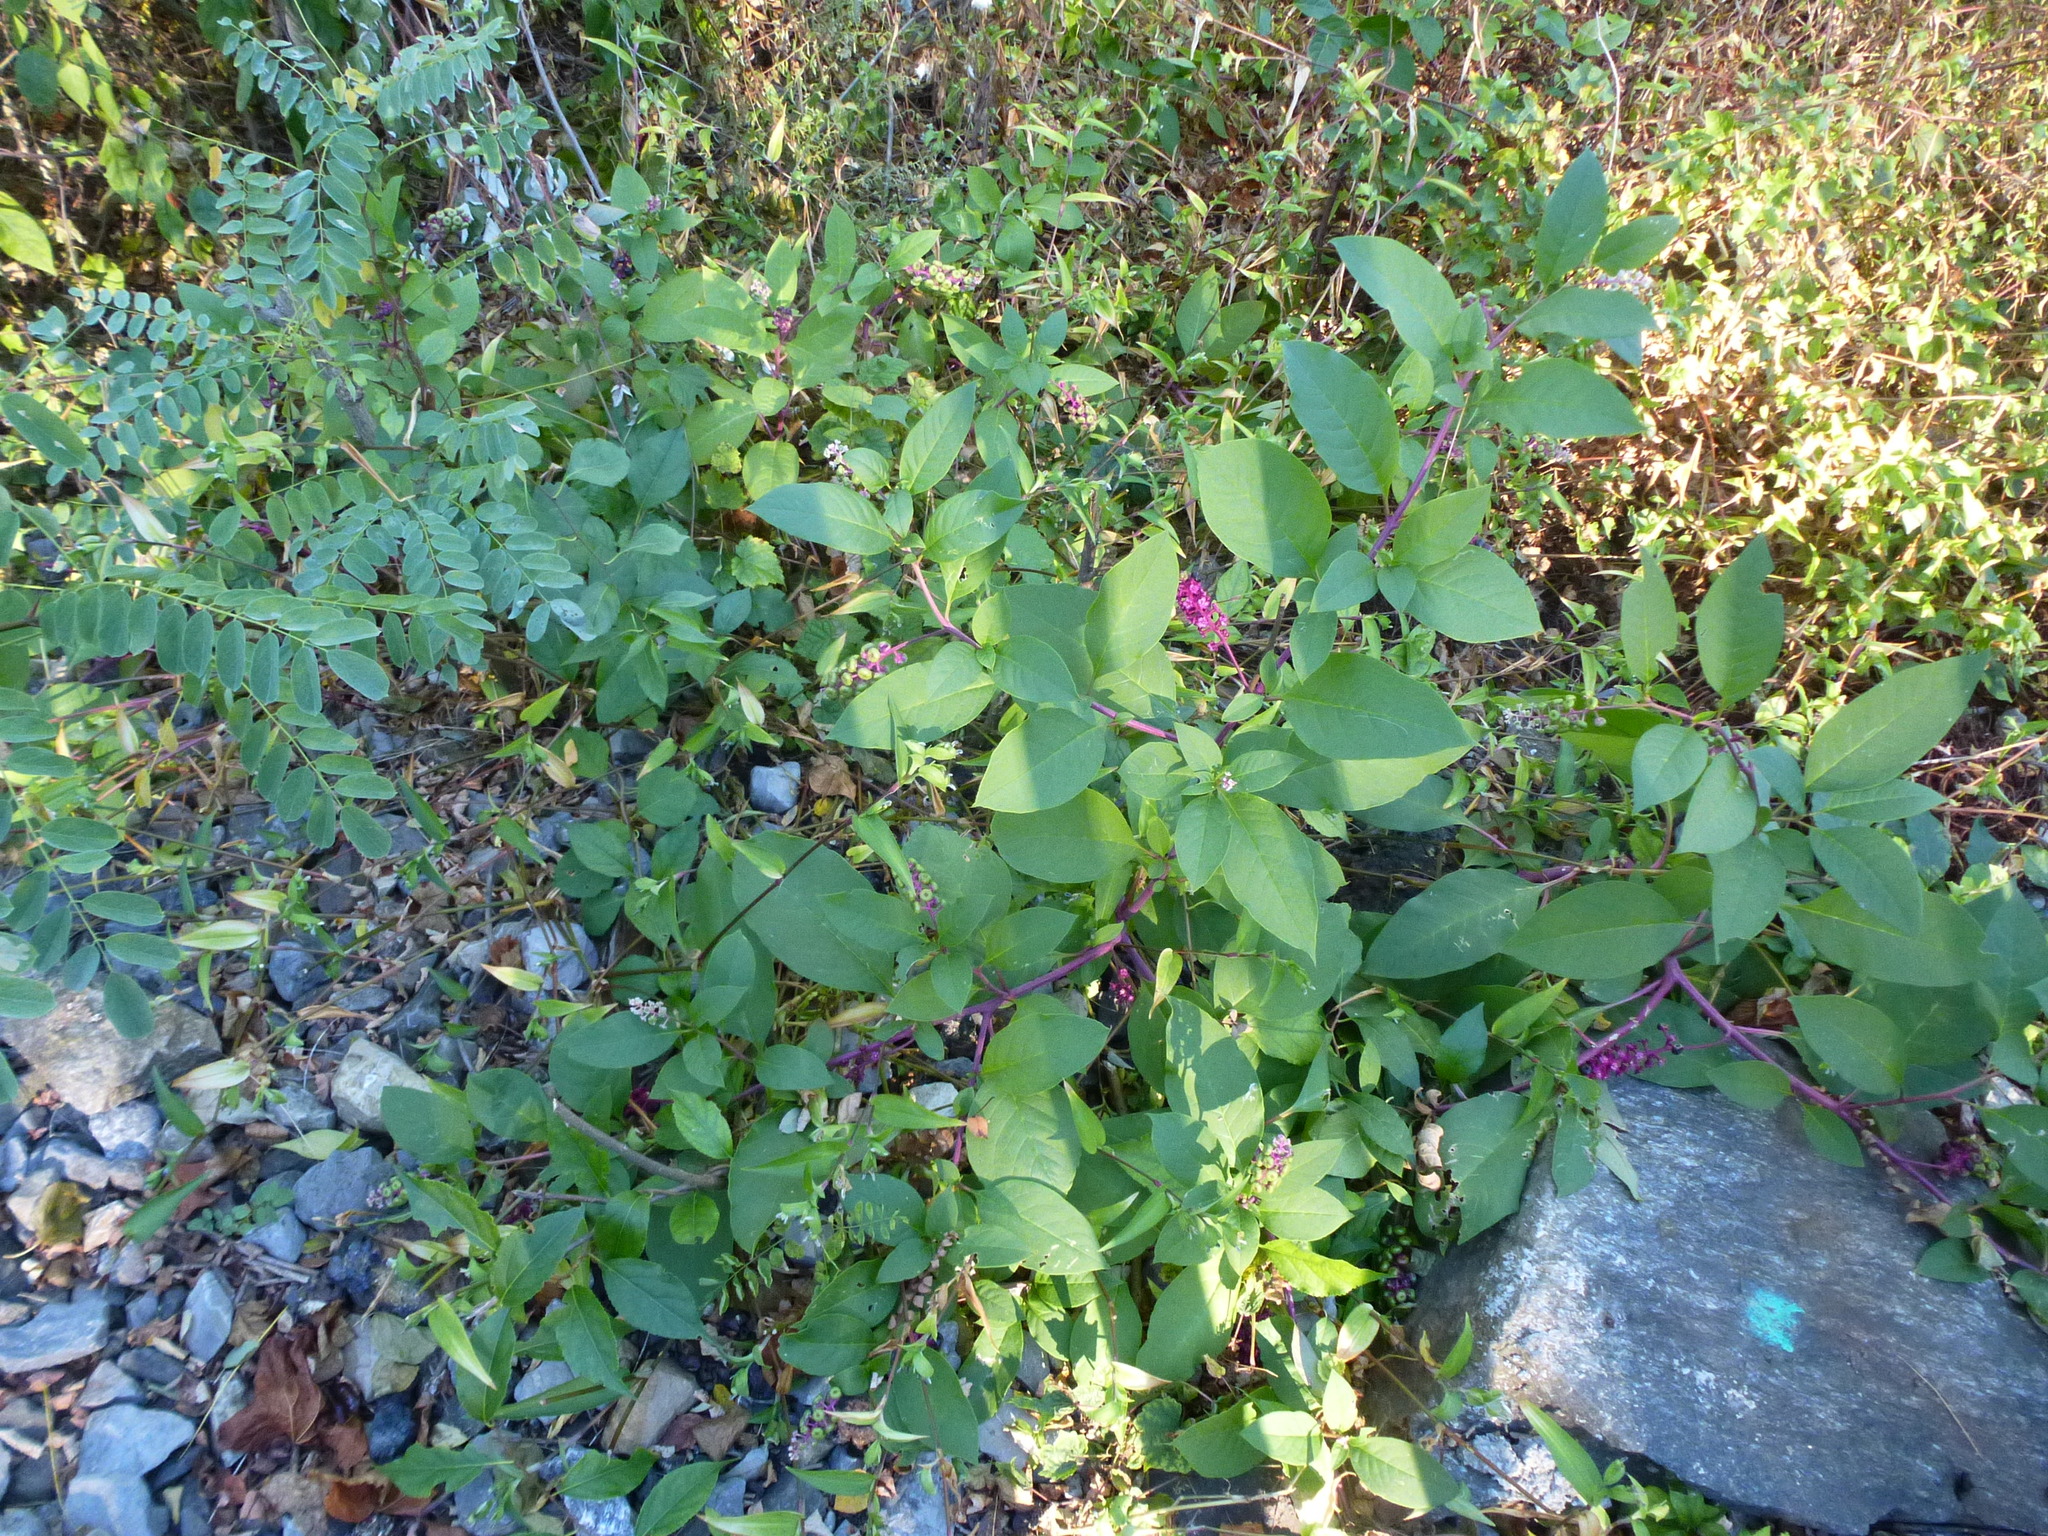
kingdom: Plantae
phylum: Tracheophyta
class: Magnoliopsida
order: Caryophyllales
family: Phytolaccaceae
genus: Phytolacca
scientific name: Phytolacca americana
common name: American pokeweed
